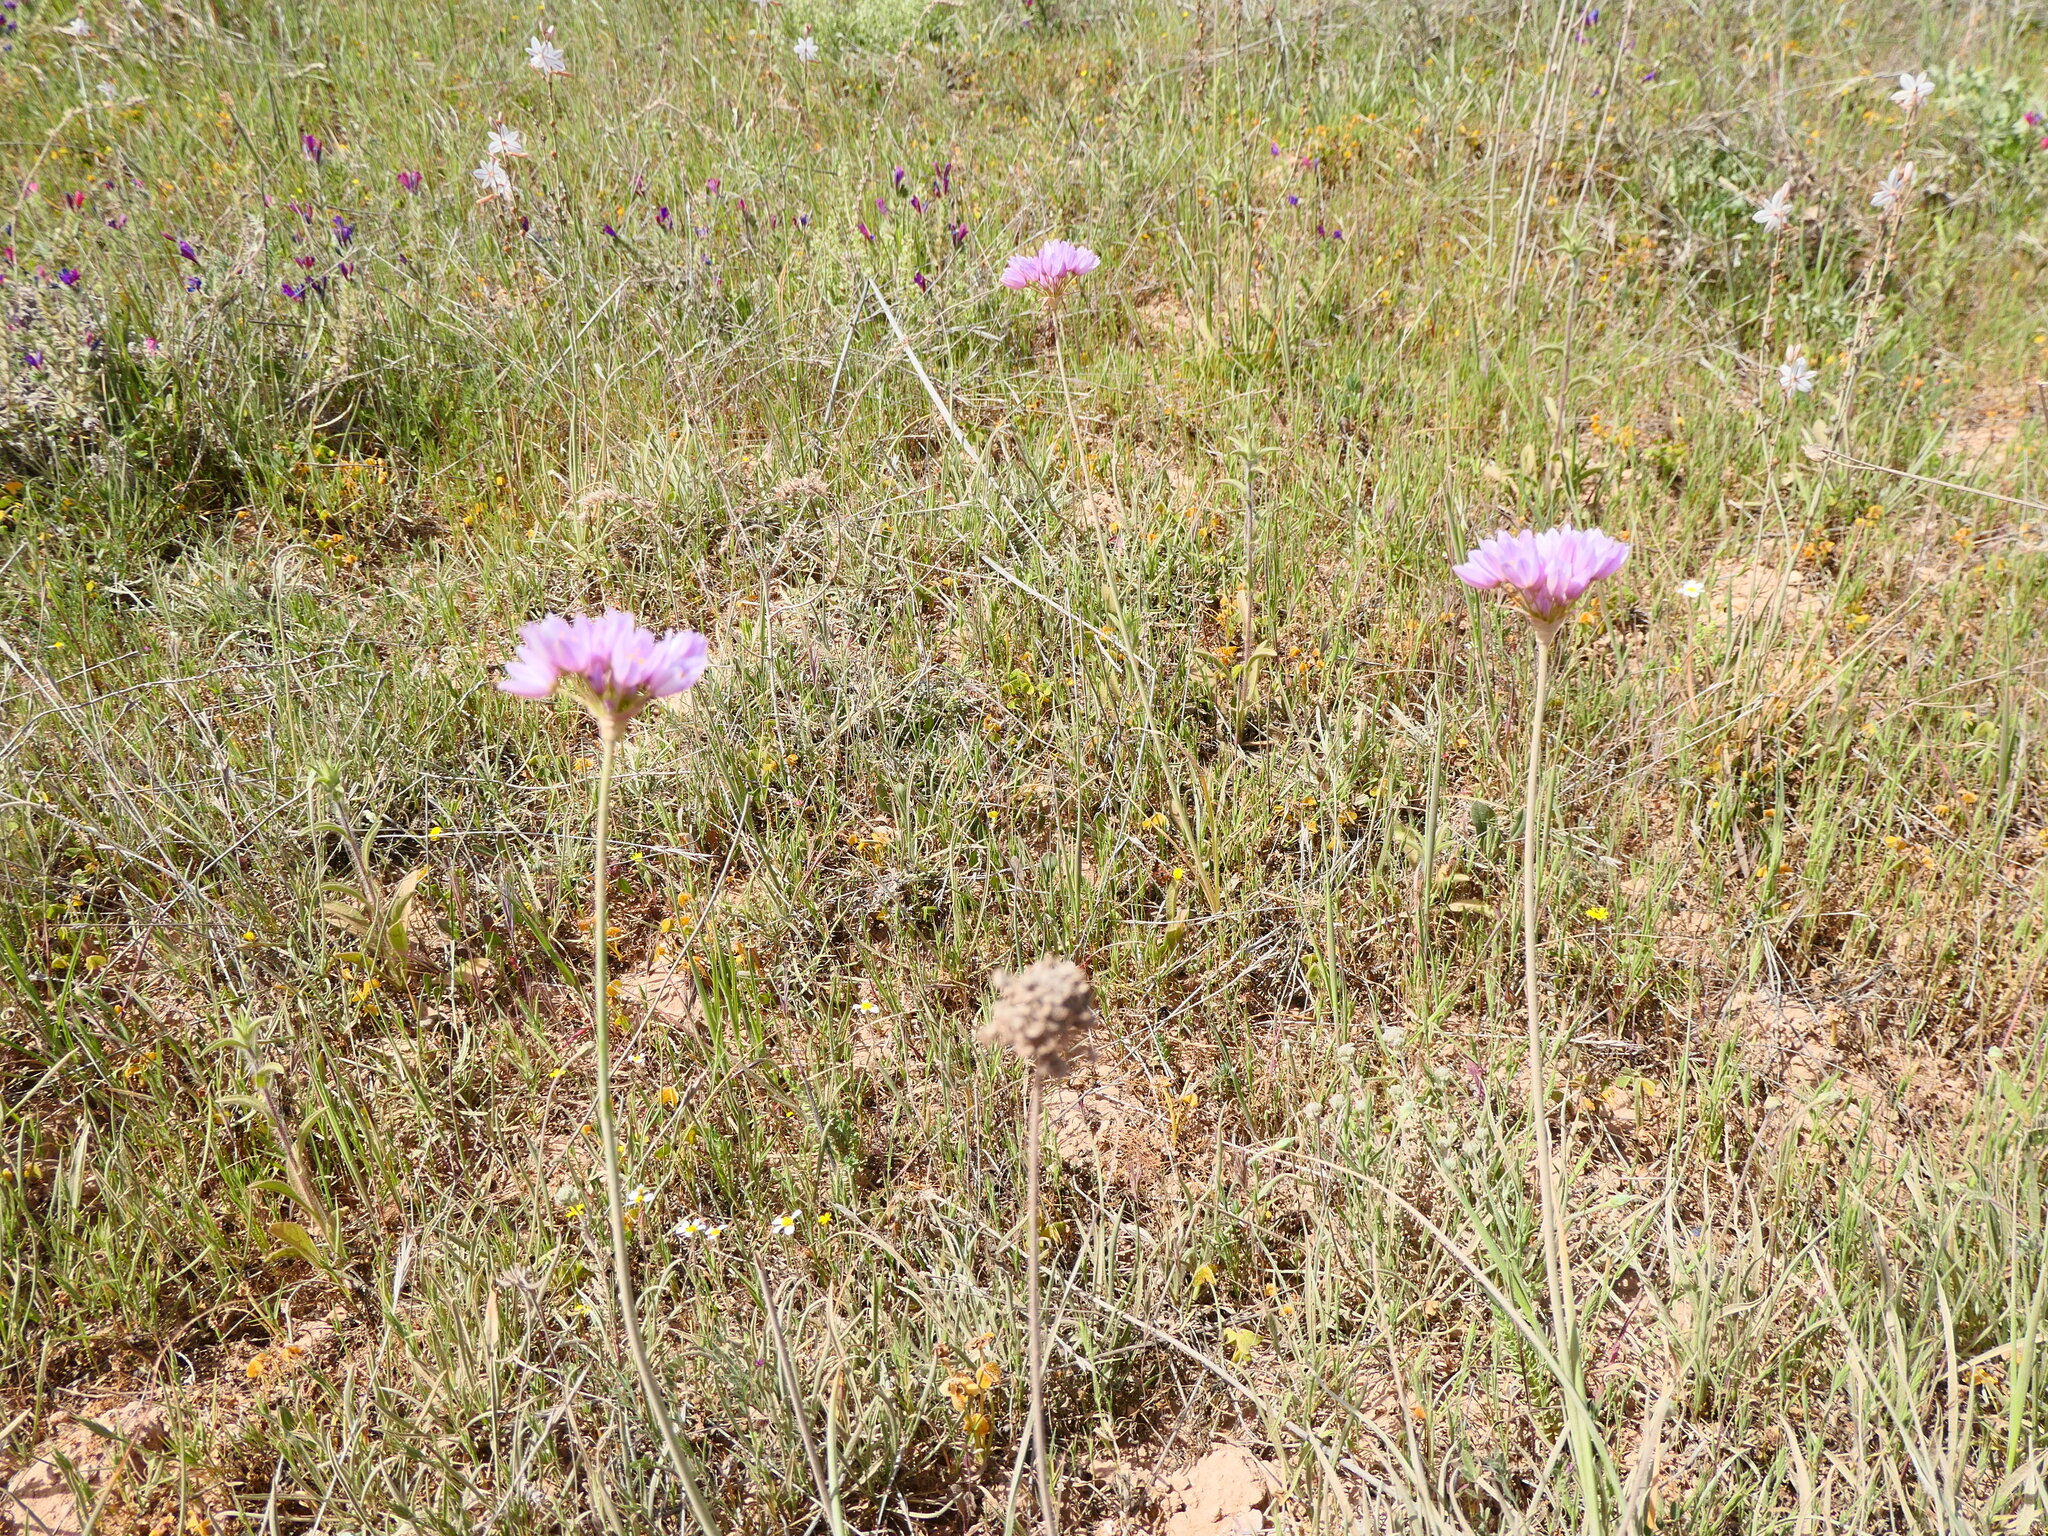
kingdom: Plantae
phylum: Tracheophyta
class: Liliopsida
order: Asparagales
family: Amaryllidaceae
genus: Allium
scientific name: Allium roseum
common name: Rosy garlic
